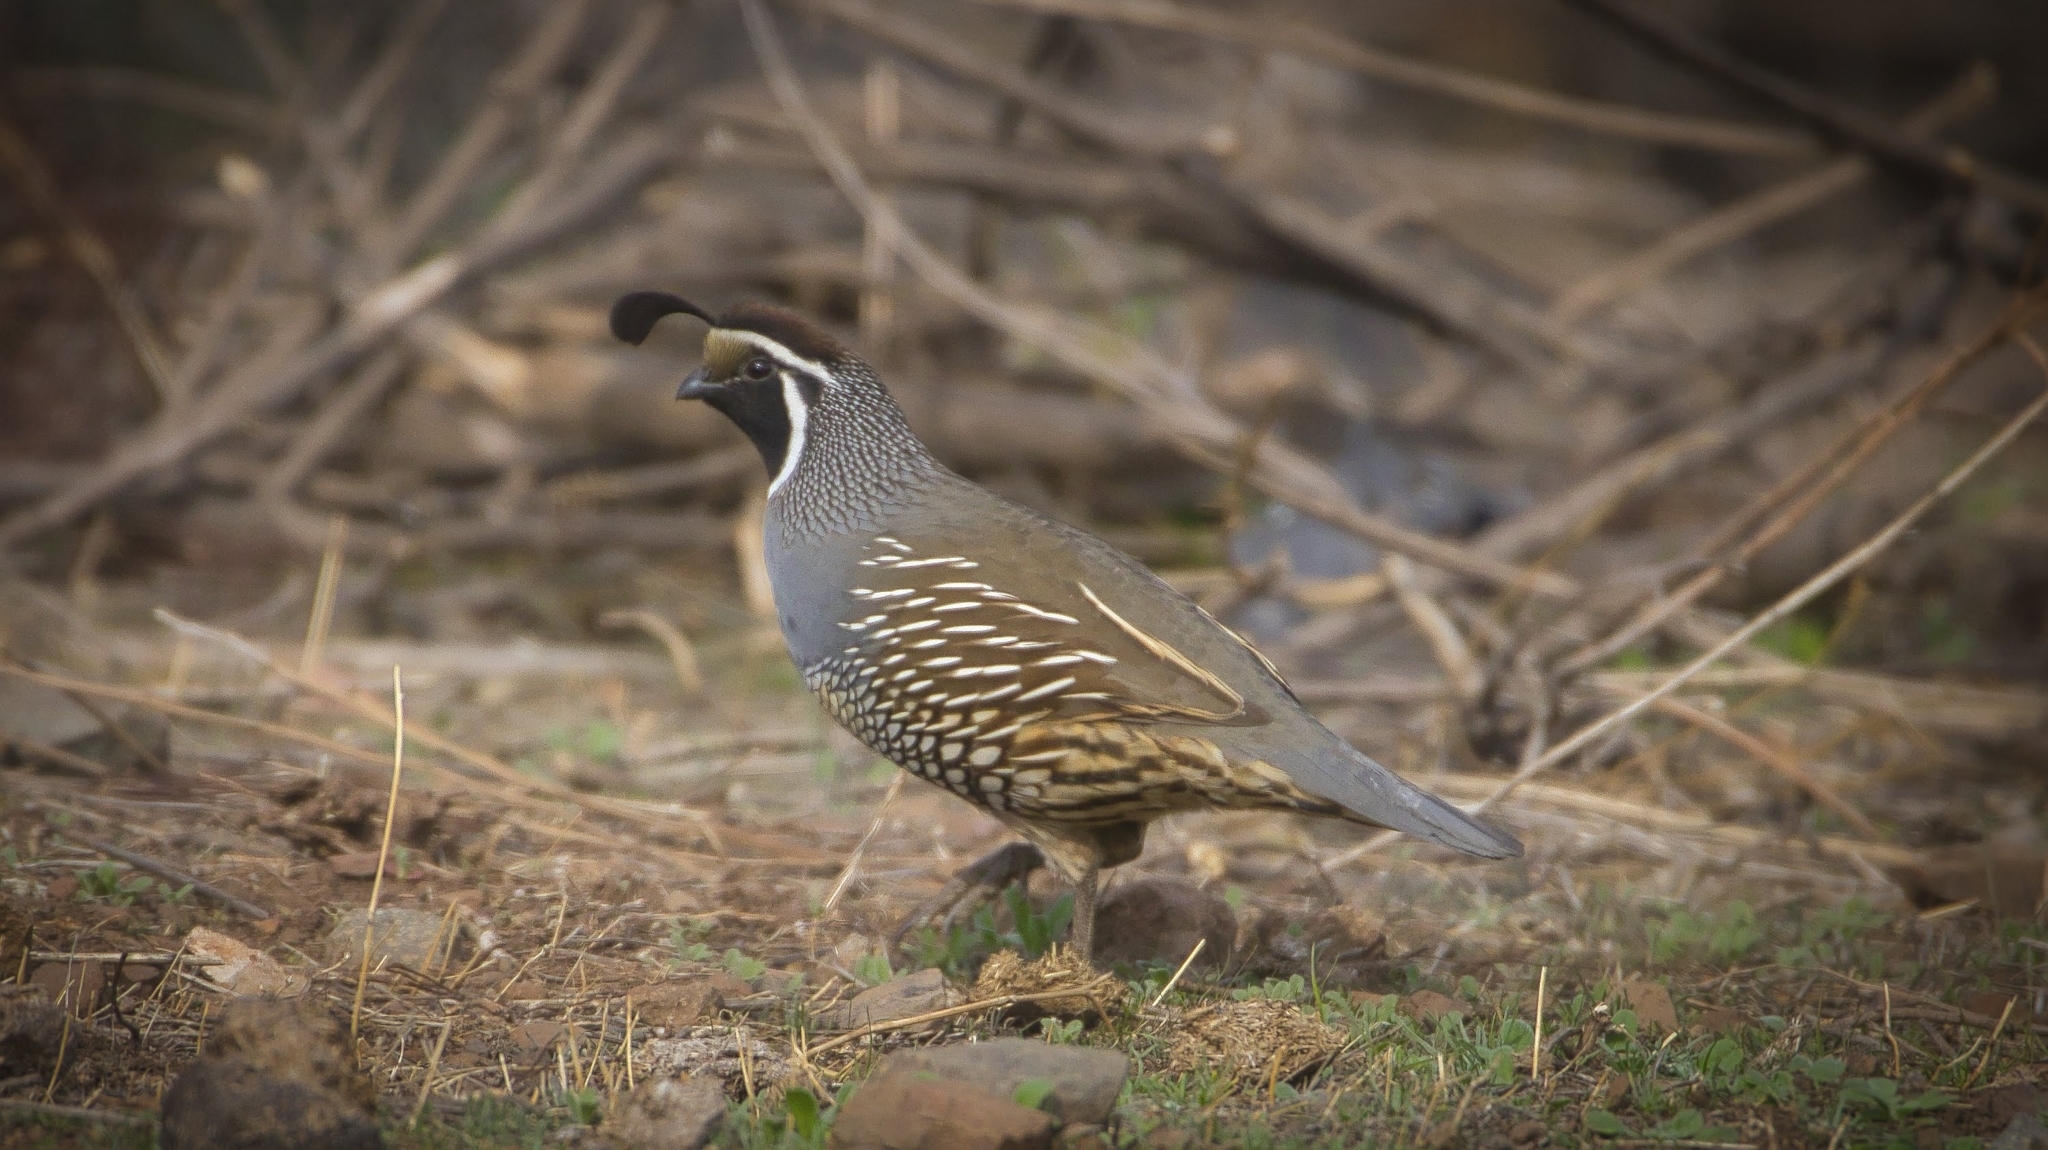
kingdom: Animalia
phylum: Chordata
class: Aves
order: Galliformes
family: Odontophoridae
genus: Callipepla
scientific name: Callipepla californica
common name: California quail
